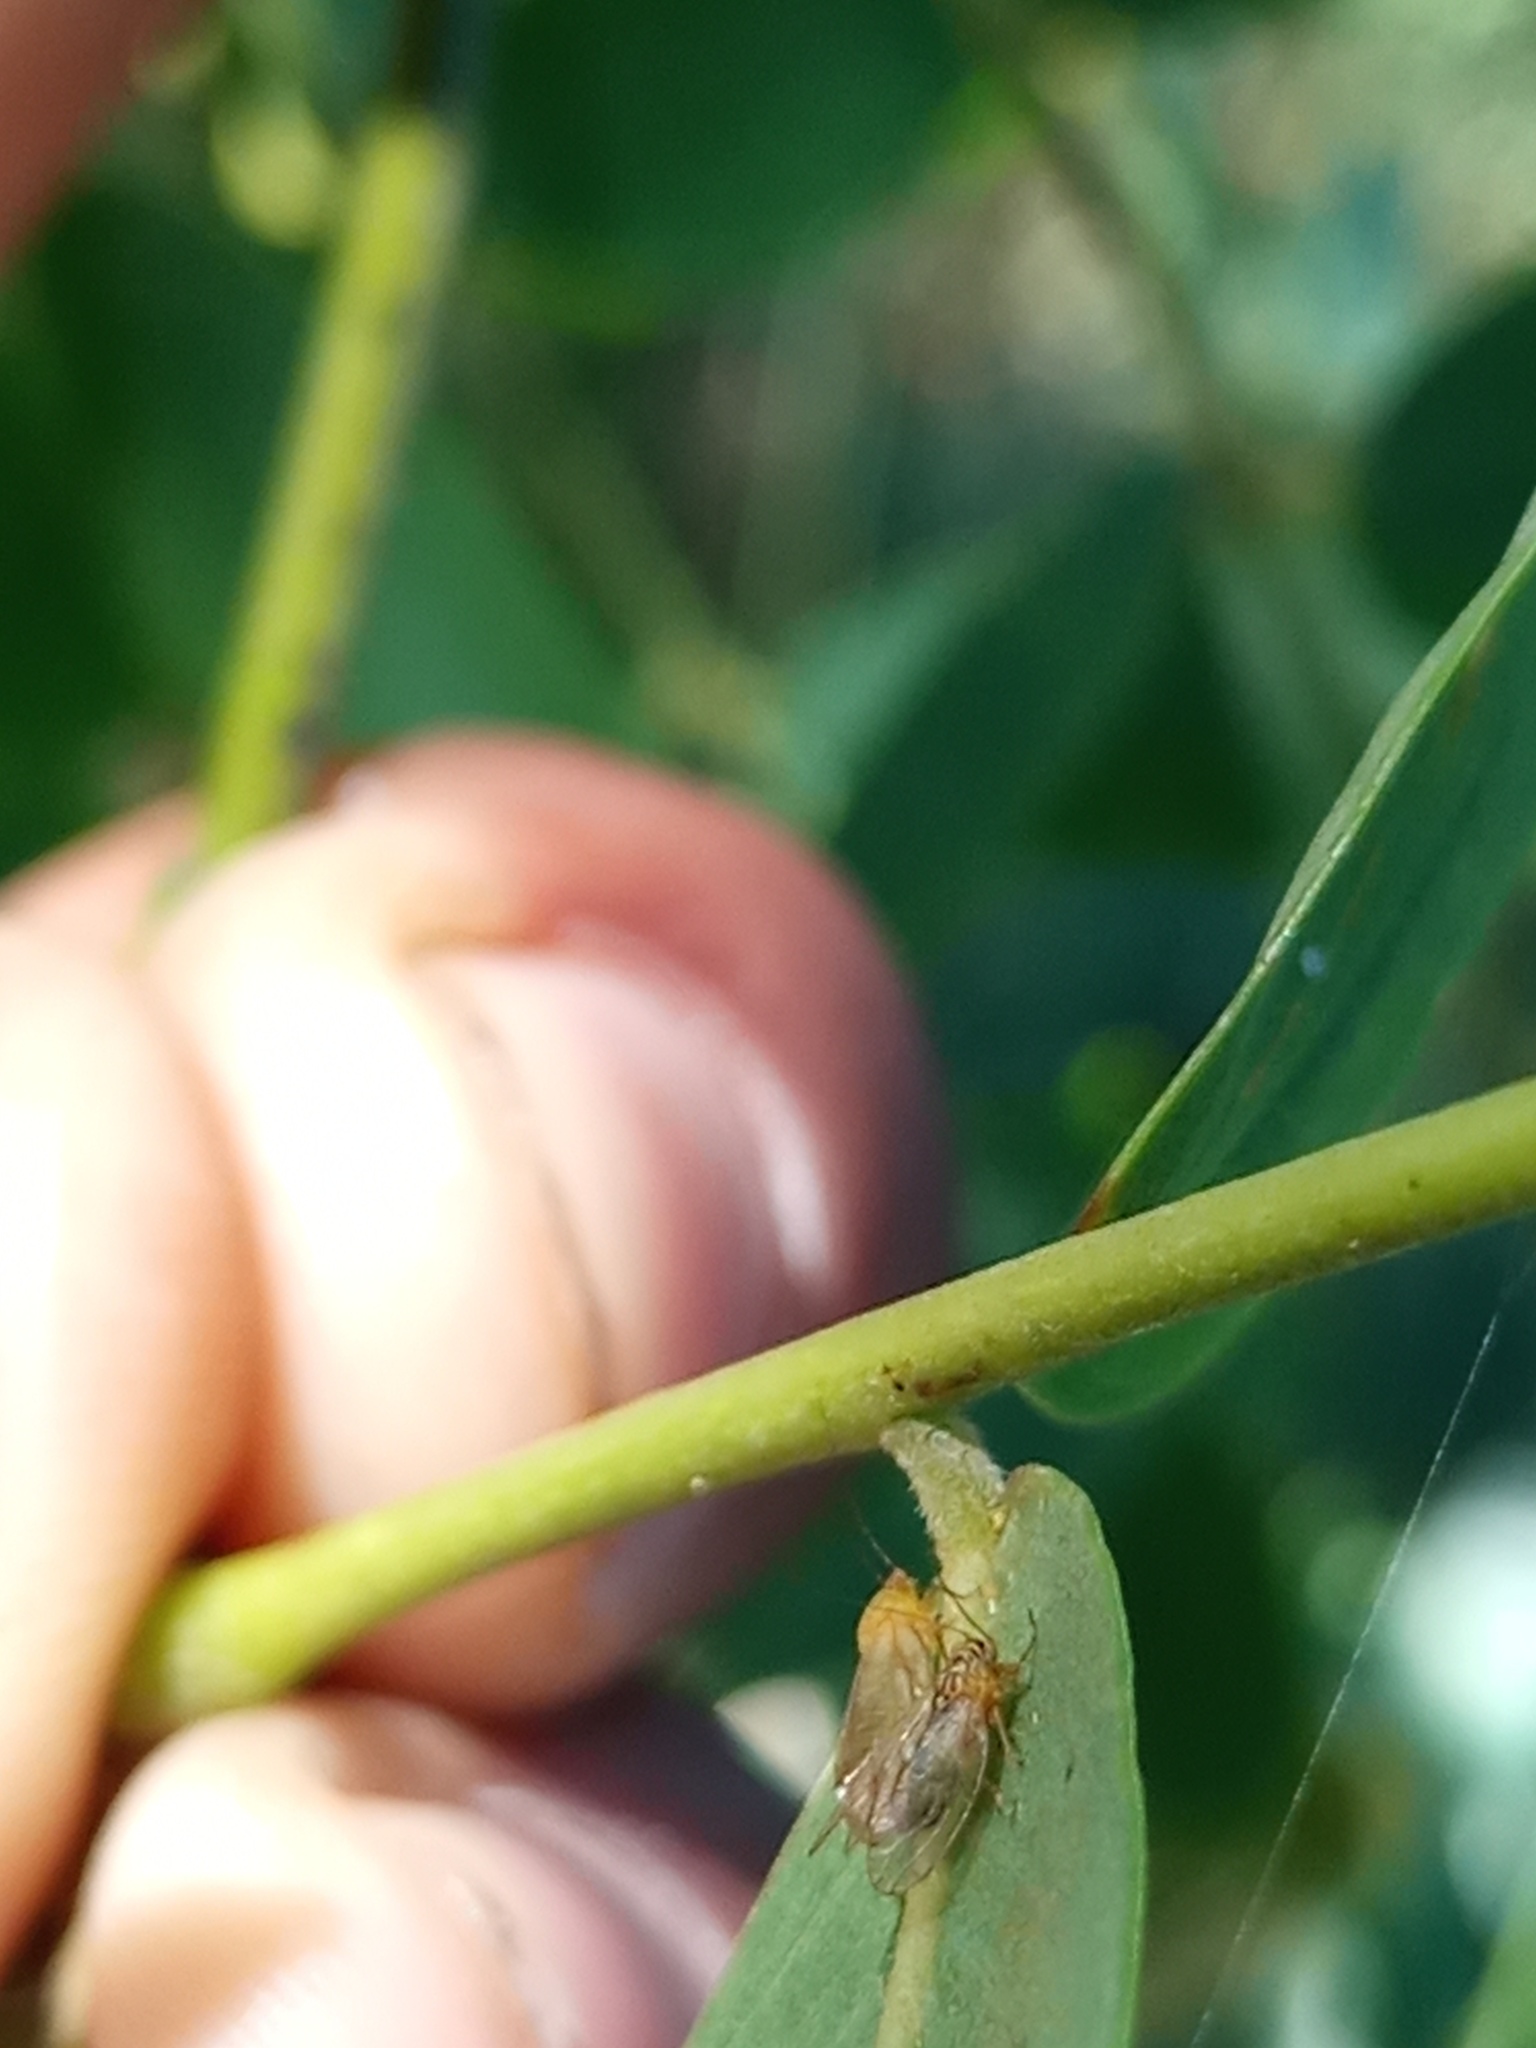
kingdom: Animalia
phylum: Arthropoda
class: Insecta
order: Hemiptera
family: Psyllidae
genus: Platycorypha
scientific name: Platycorypha nigrivirga
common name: Tipu psyllid
